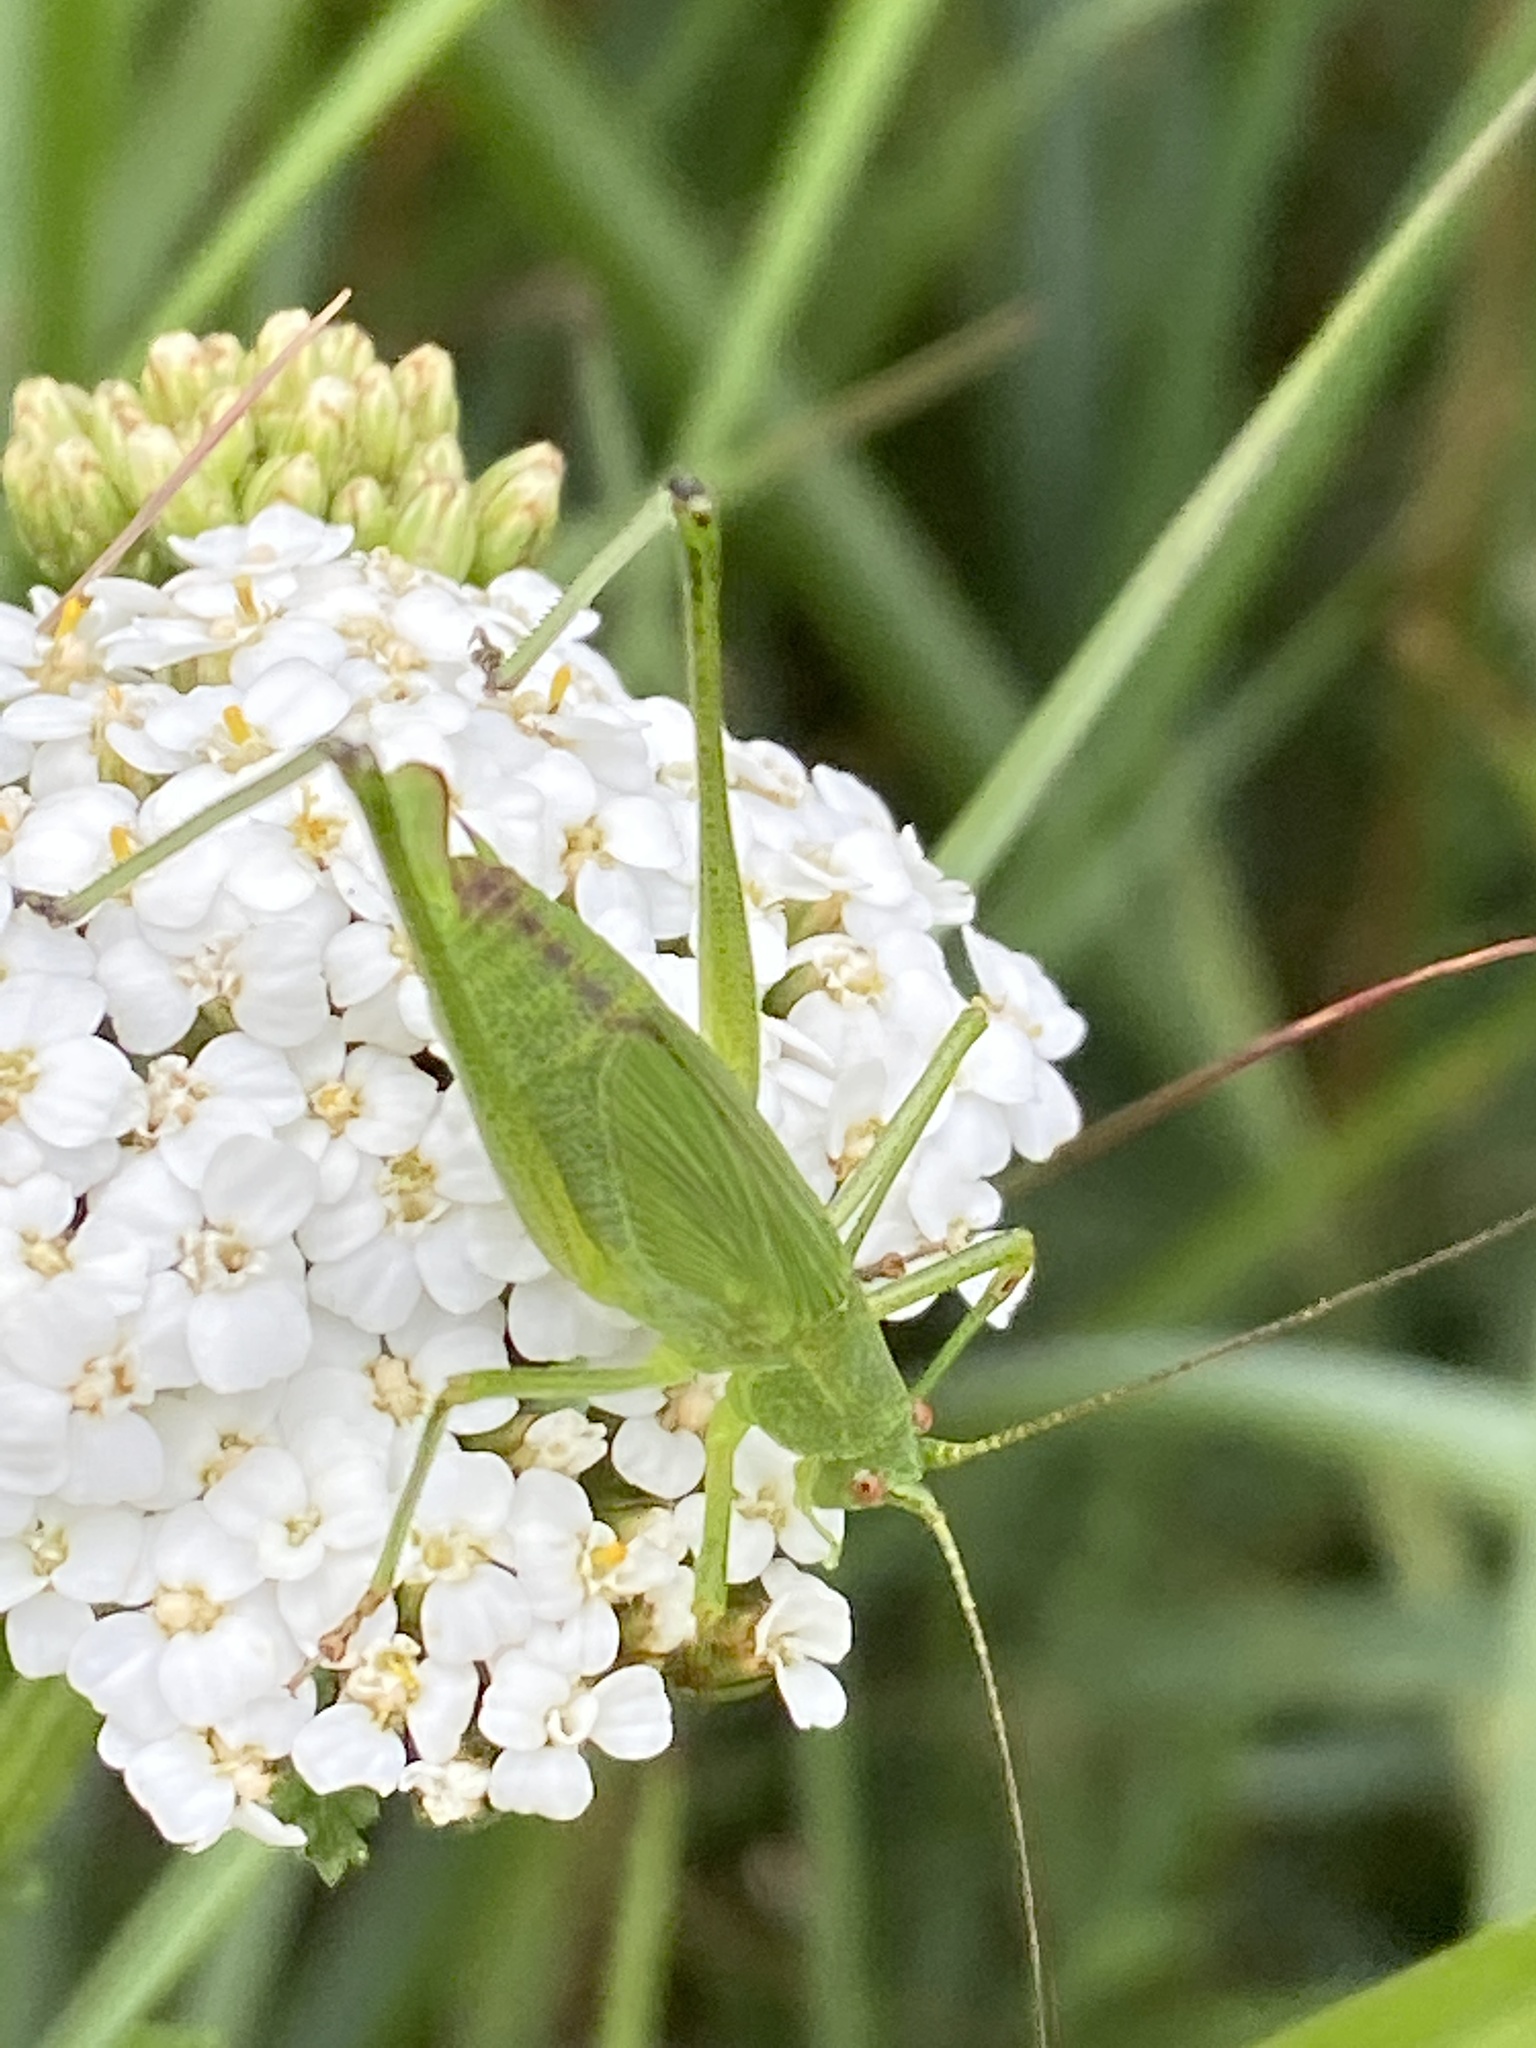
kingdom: Animalia
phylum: Arthropoda
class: Insecta
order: Orthoptera
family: Tettigoniidae
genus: Phaneroptera
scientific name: Phaneroptera falcata
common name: Sickle-bearing bush-cricket
